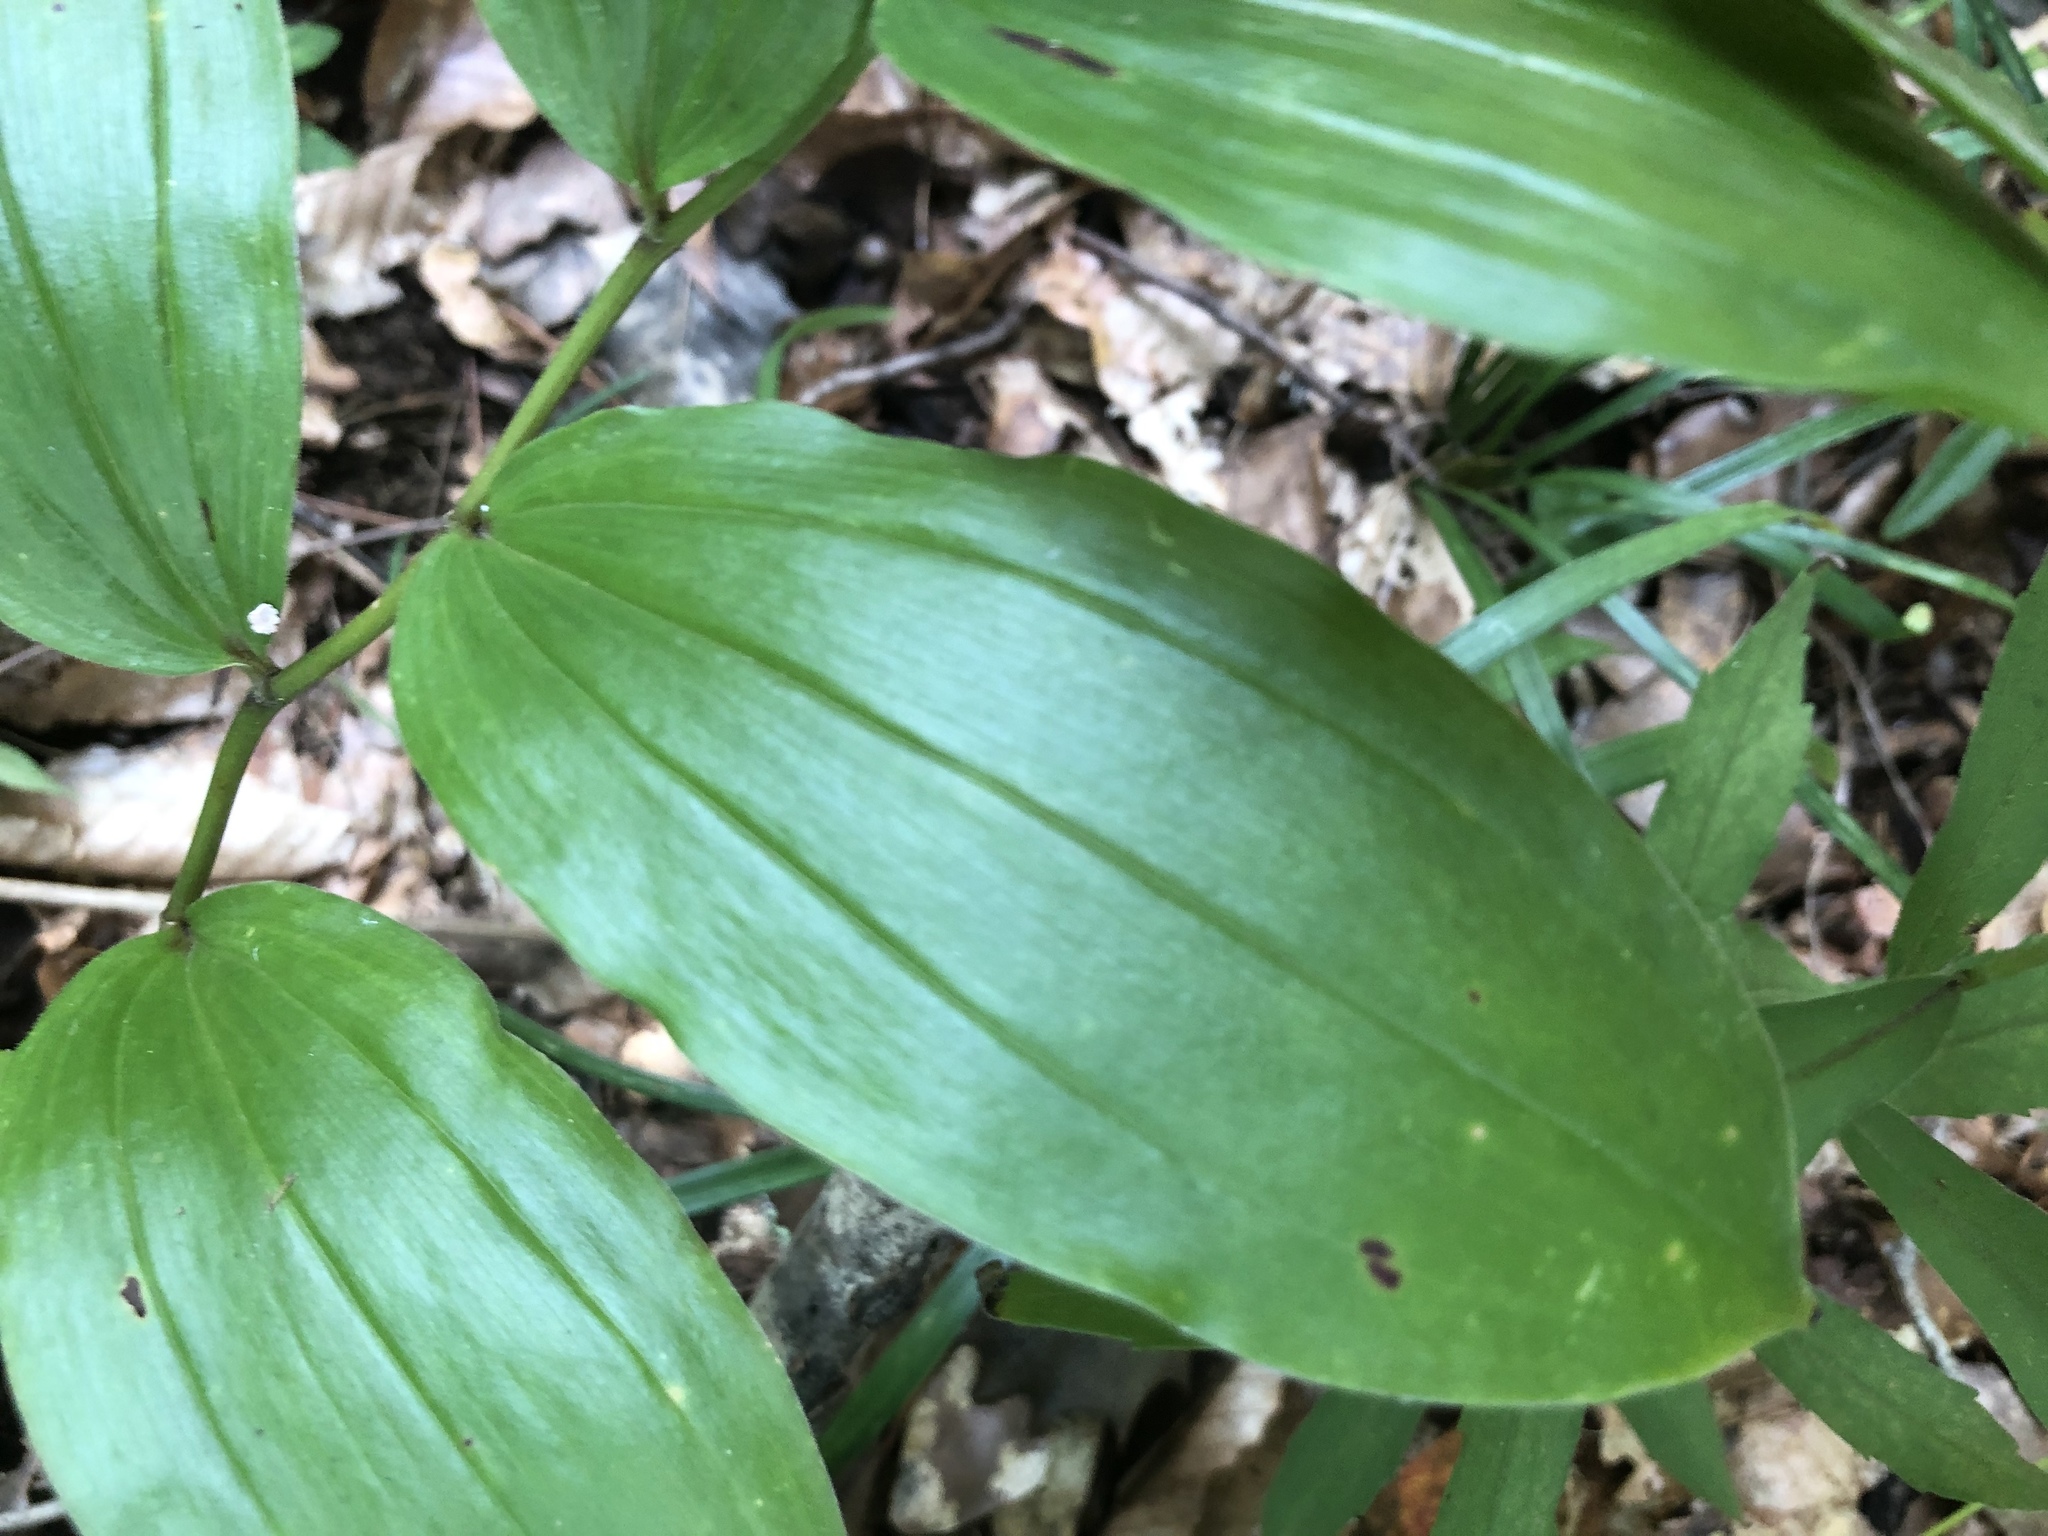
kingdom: Plantae
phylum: Tracheophyta
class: Liliopsida
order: Asparagales
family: Asparagaceae
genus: Maianthemum
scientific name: Maianthemum racemosum
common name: False spikenard
